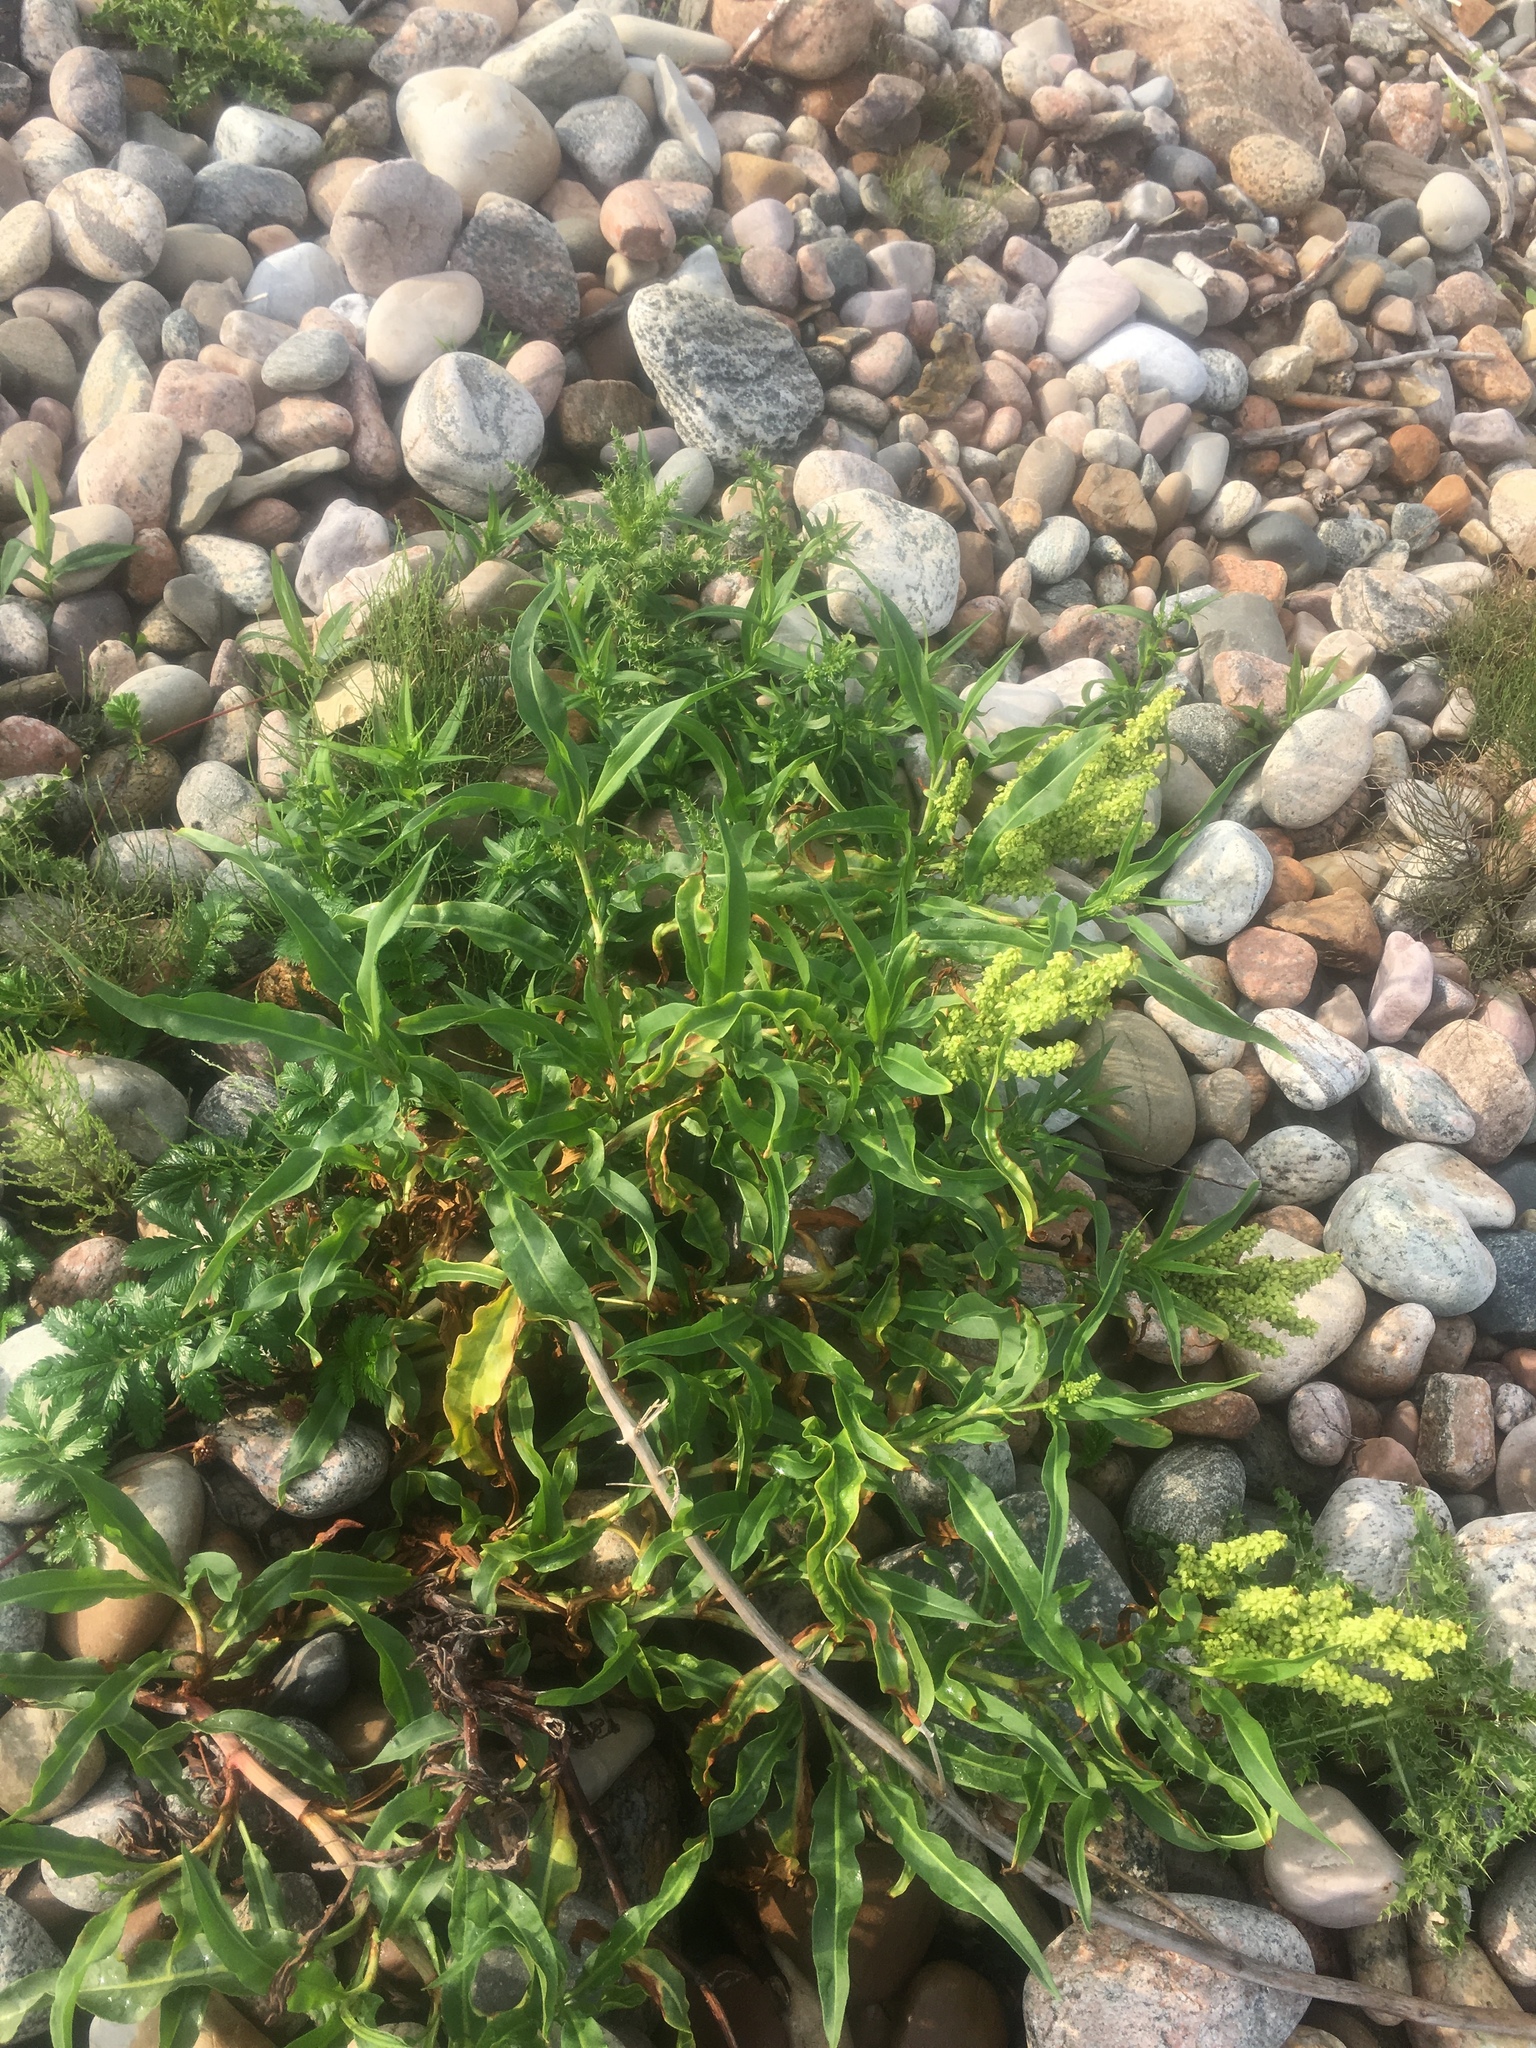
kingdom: Plantae
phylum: Tracheophyta
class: Magnoliopsida
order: Caryophyllales
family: Polygonaceae
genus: Rumex
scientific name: Rumex pallidus
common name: Large-tuberculed dock
